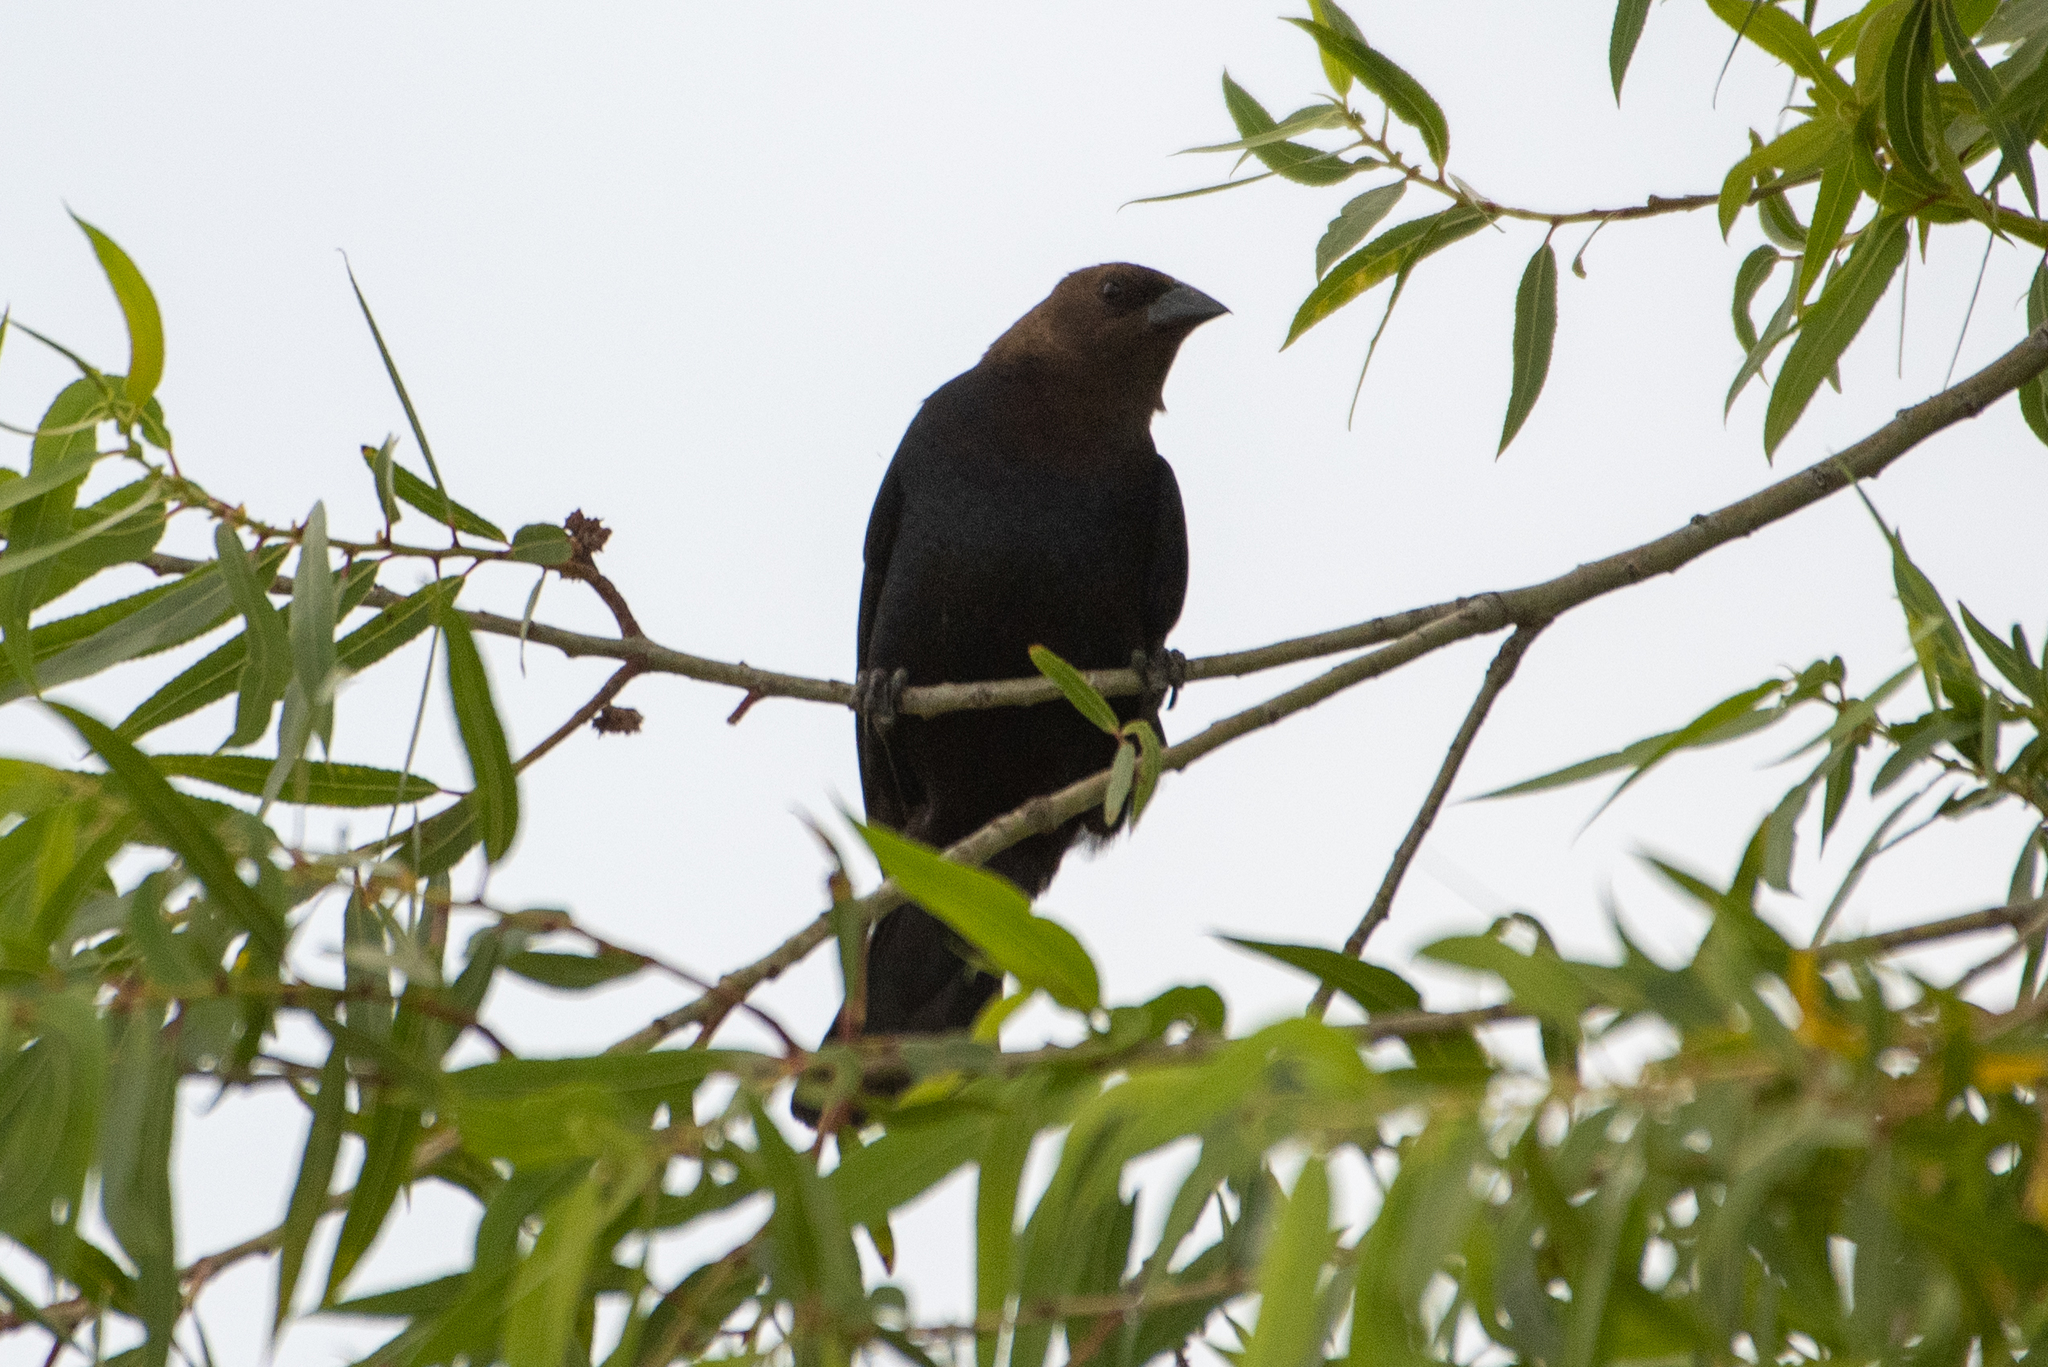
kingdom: Animalia
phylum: Chordata
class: Aves
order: Passeriformes
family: Icteridae
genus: Molothrus
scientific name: Molothrus ater
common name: Brown-headed cowbird
